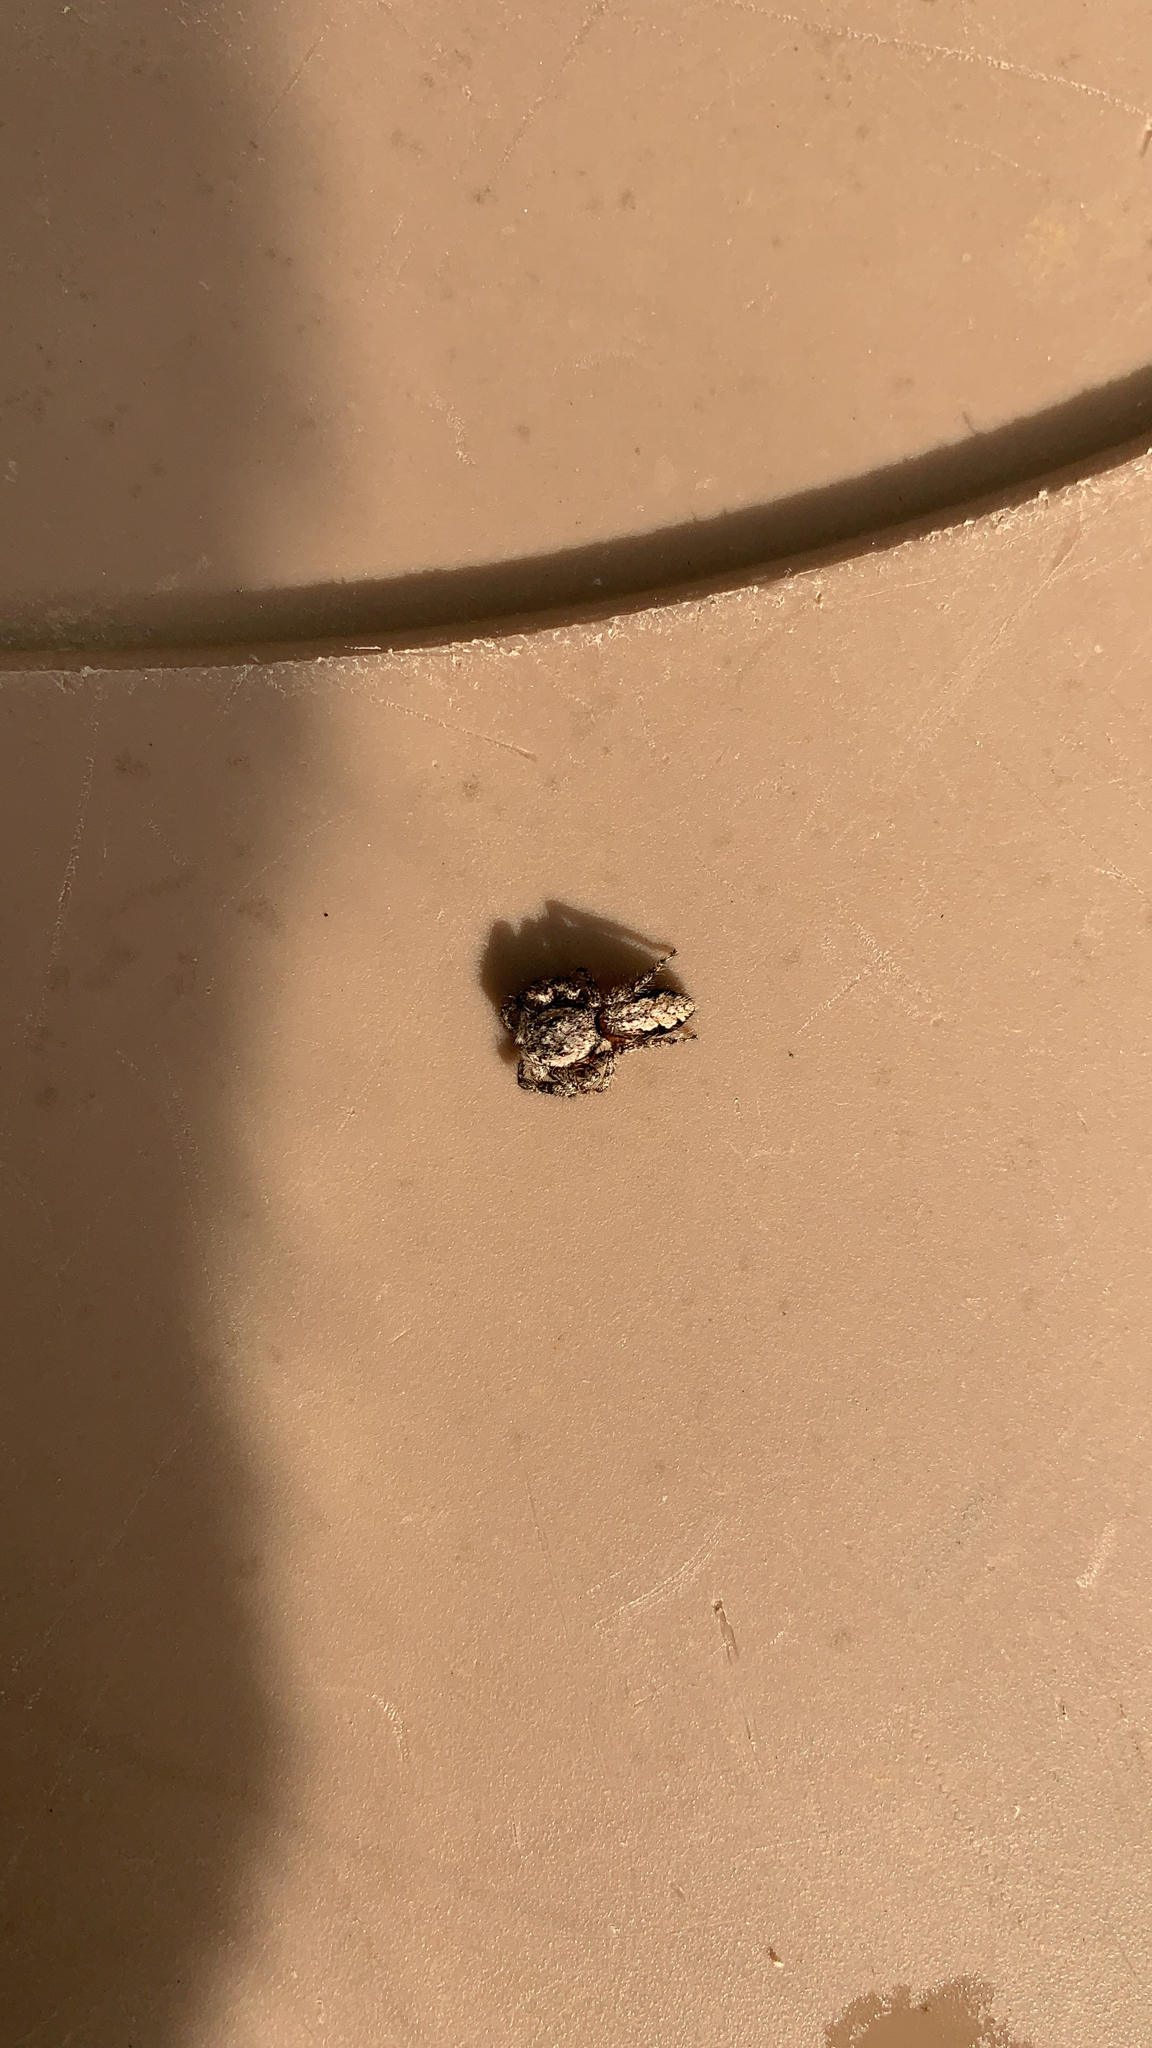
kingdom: Animalia
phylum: Arthropoda
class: Arachnida
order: Araneae
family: Salticidae
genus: Platycryptus
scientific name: Platycryptus undatus
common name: Tan jumping spider
